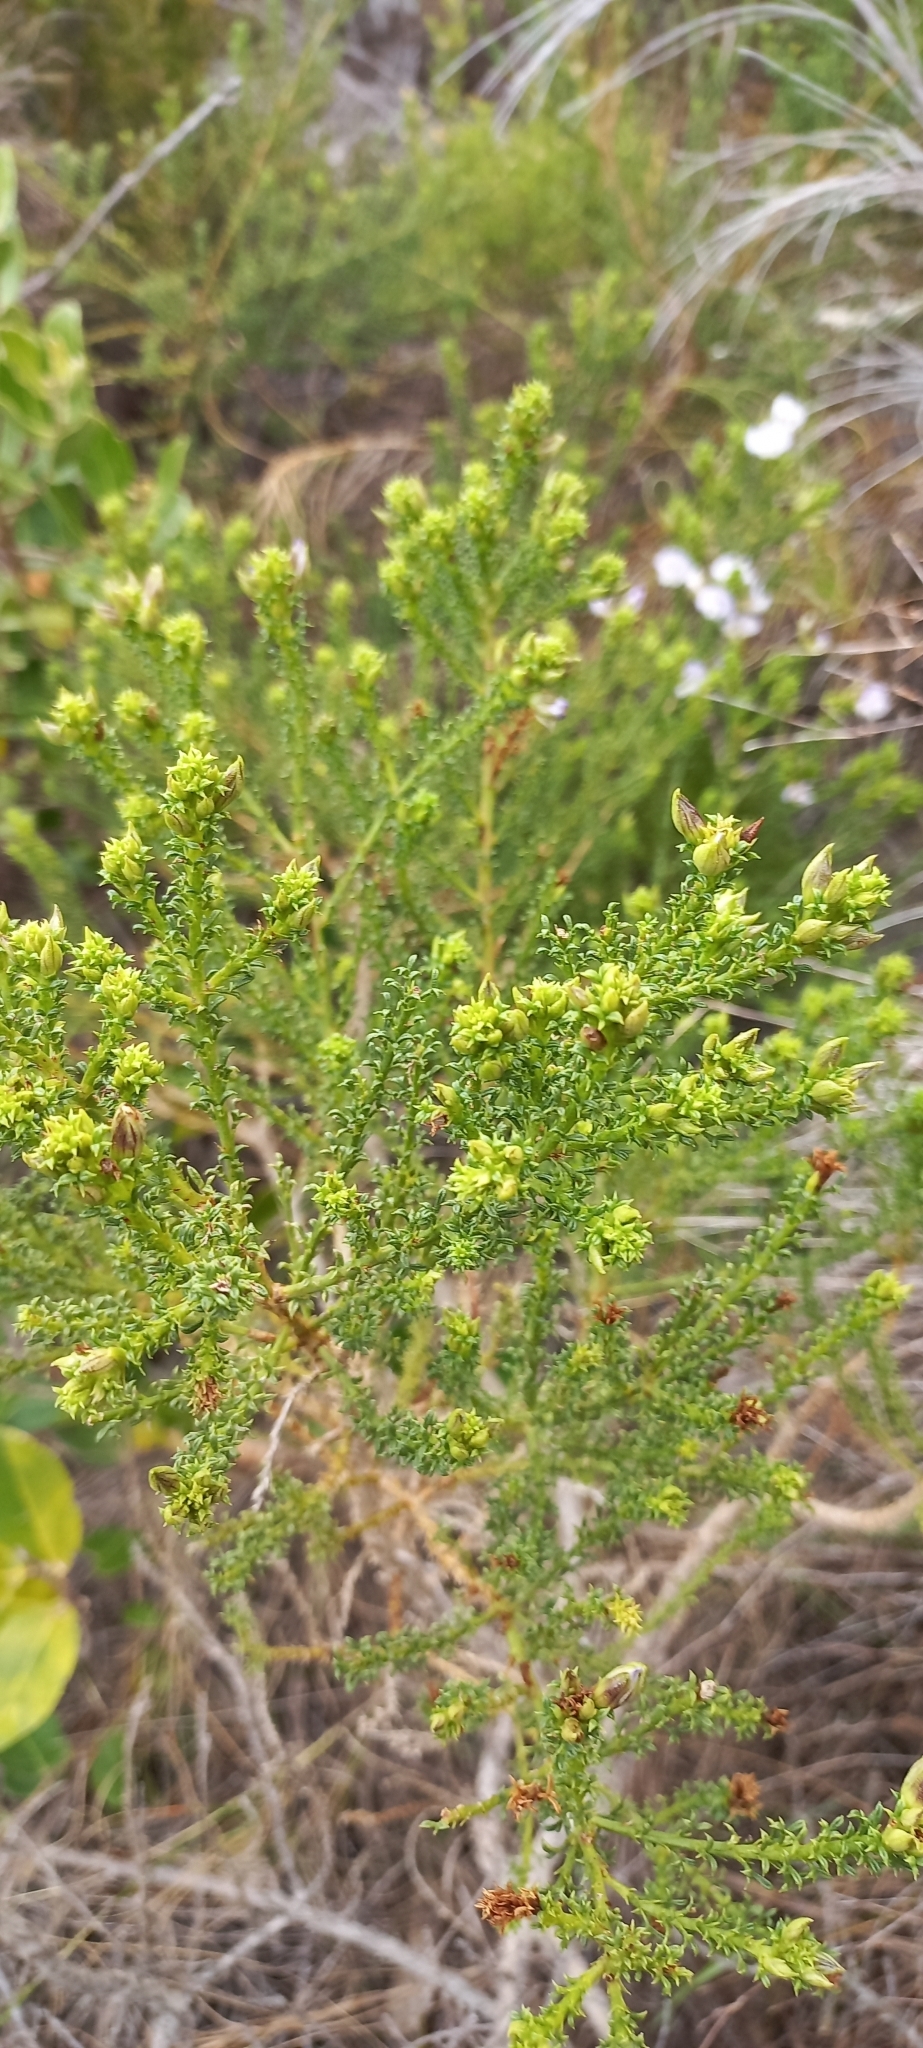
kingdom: Plantae
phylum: Tracheophyta
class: Magnoliopsida
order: Fabales
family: Fabaceae
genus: Psoralea
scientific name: Psoralea aculeata
